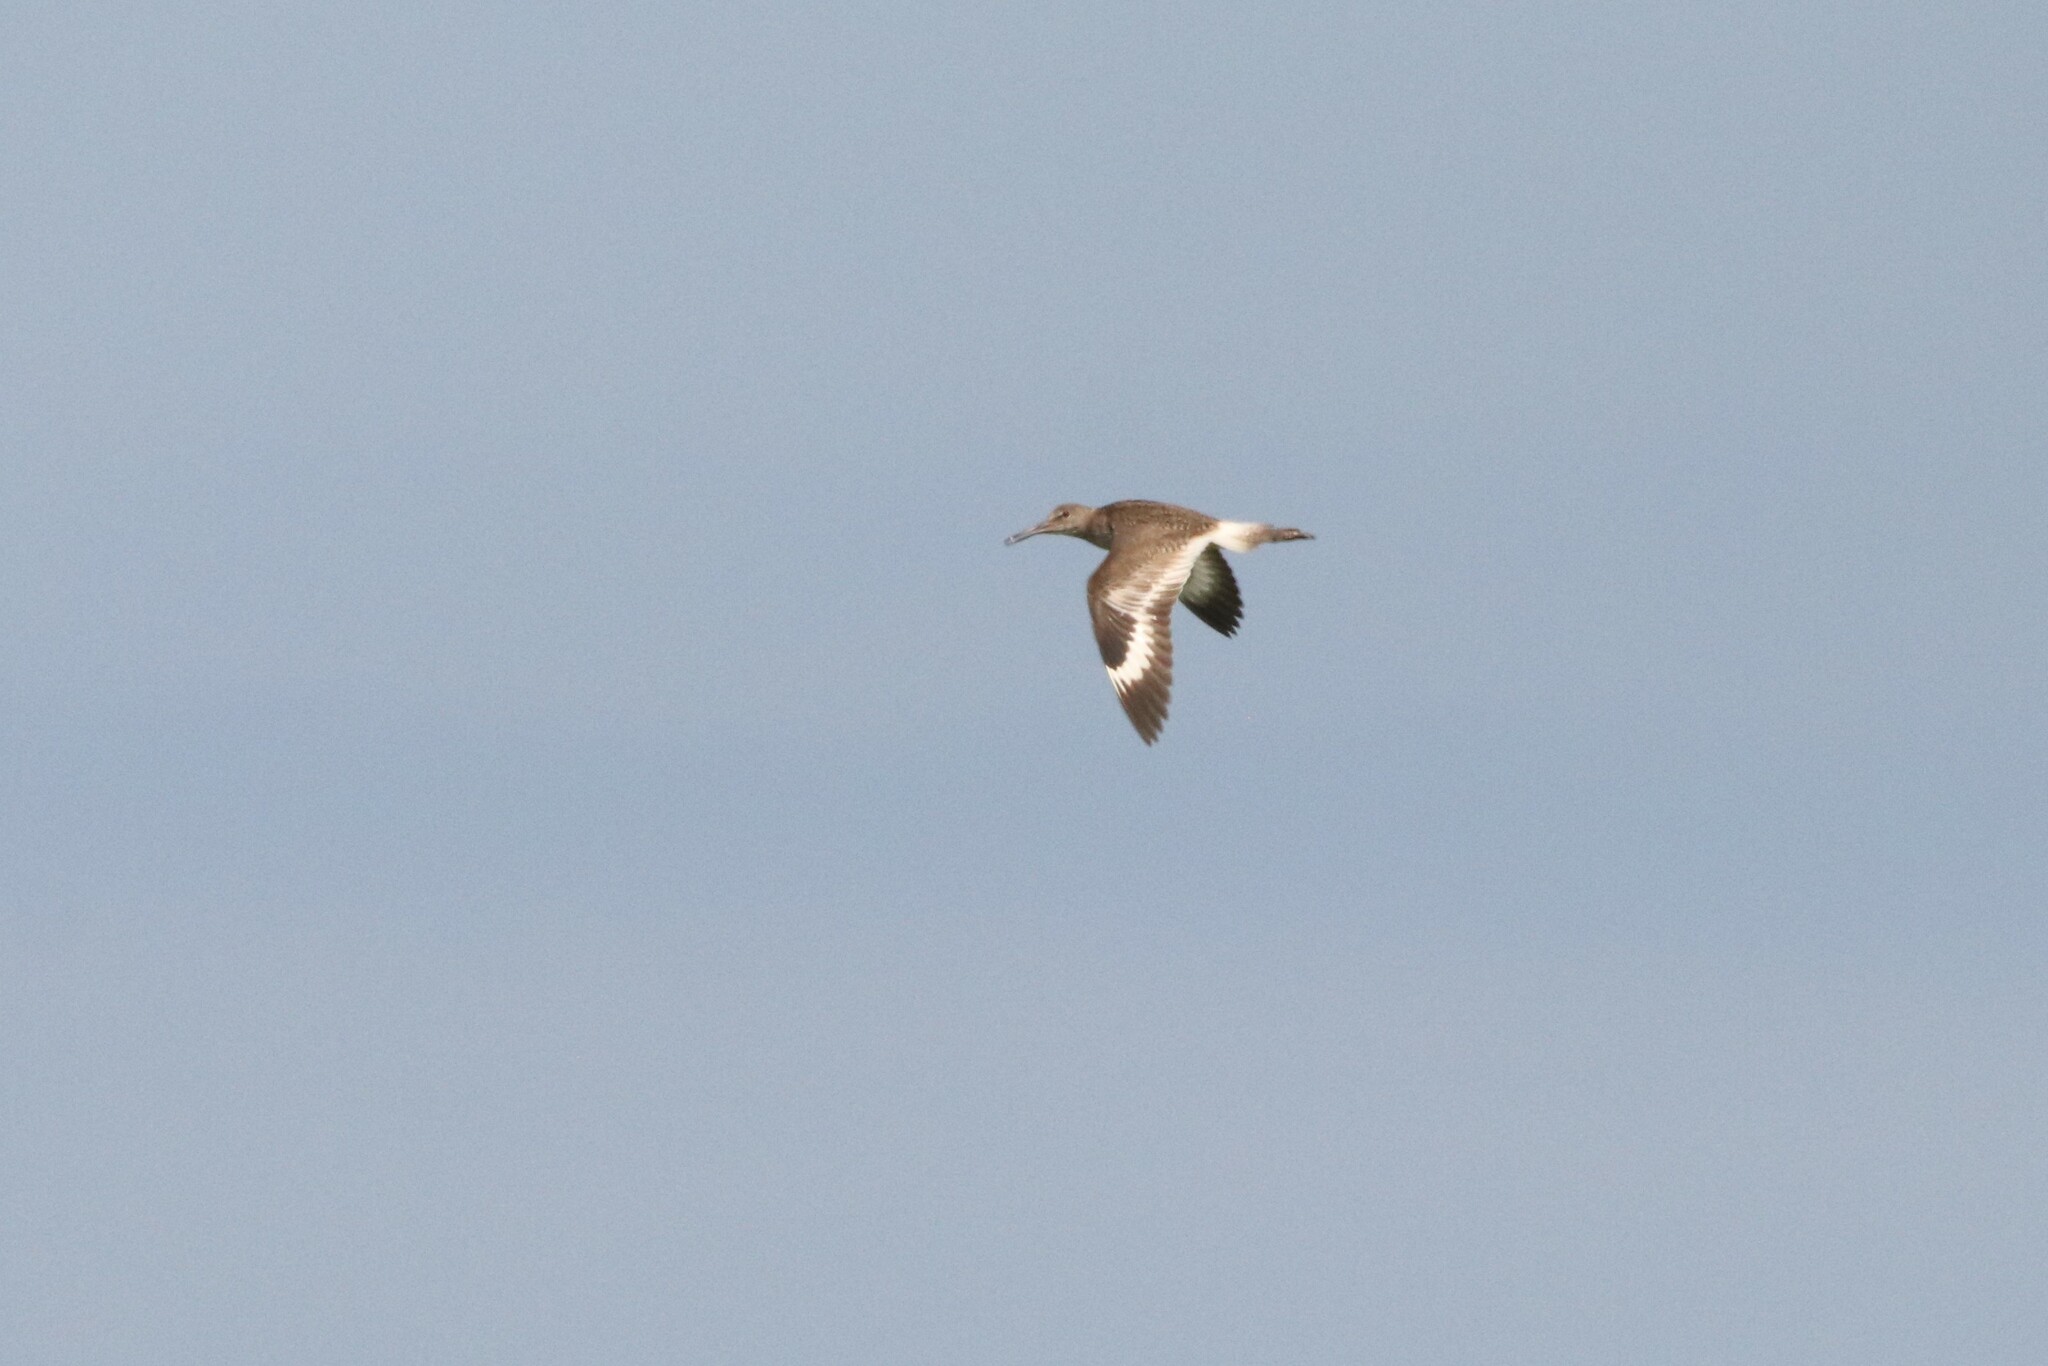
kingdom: Animalia
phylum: Chordata
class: Aves
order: Charadriiformes
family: Scolopacidae
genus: Tringa
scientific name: Tringa semipalmata
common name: Willet
